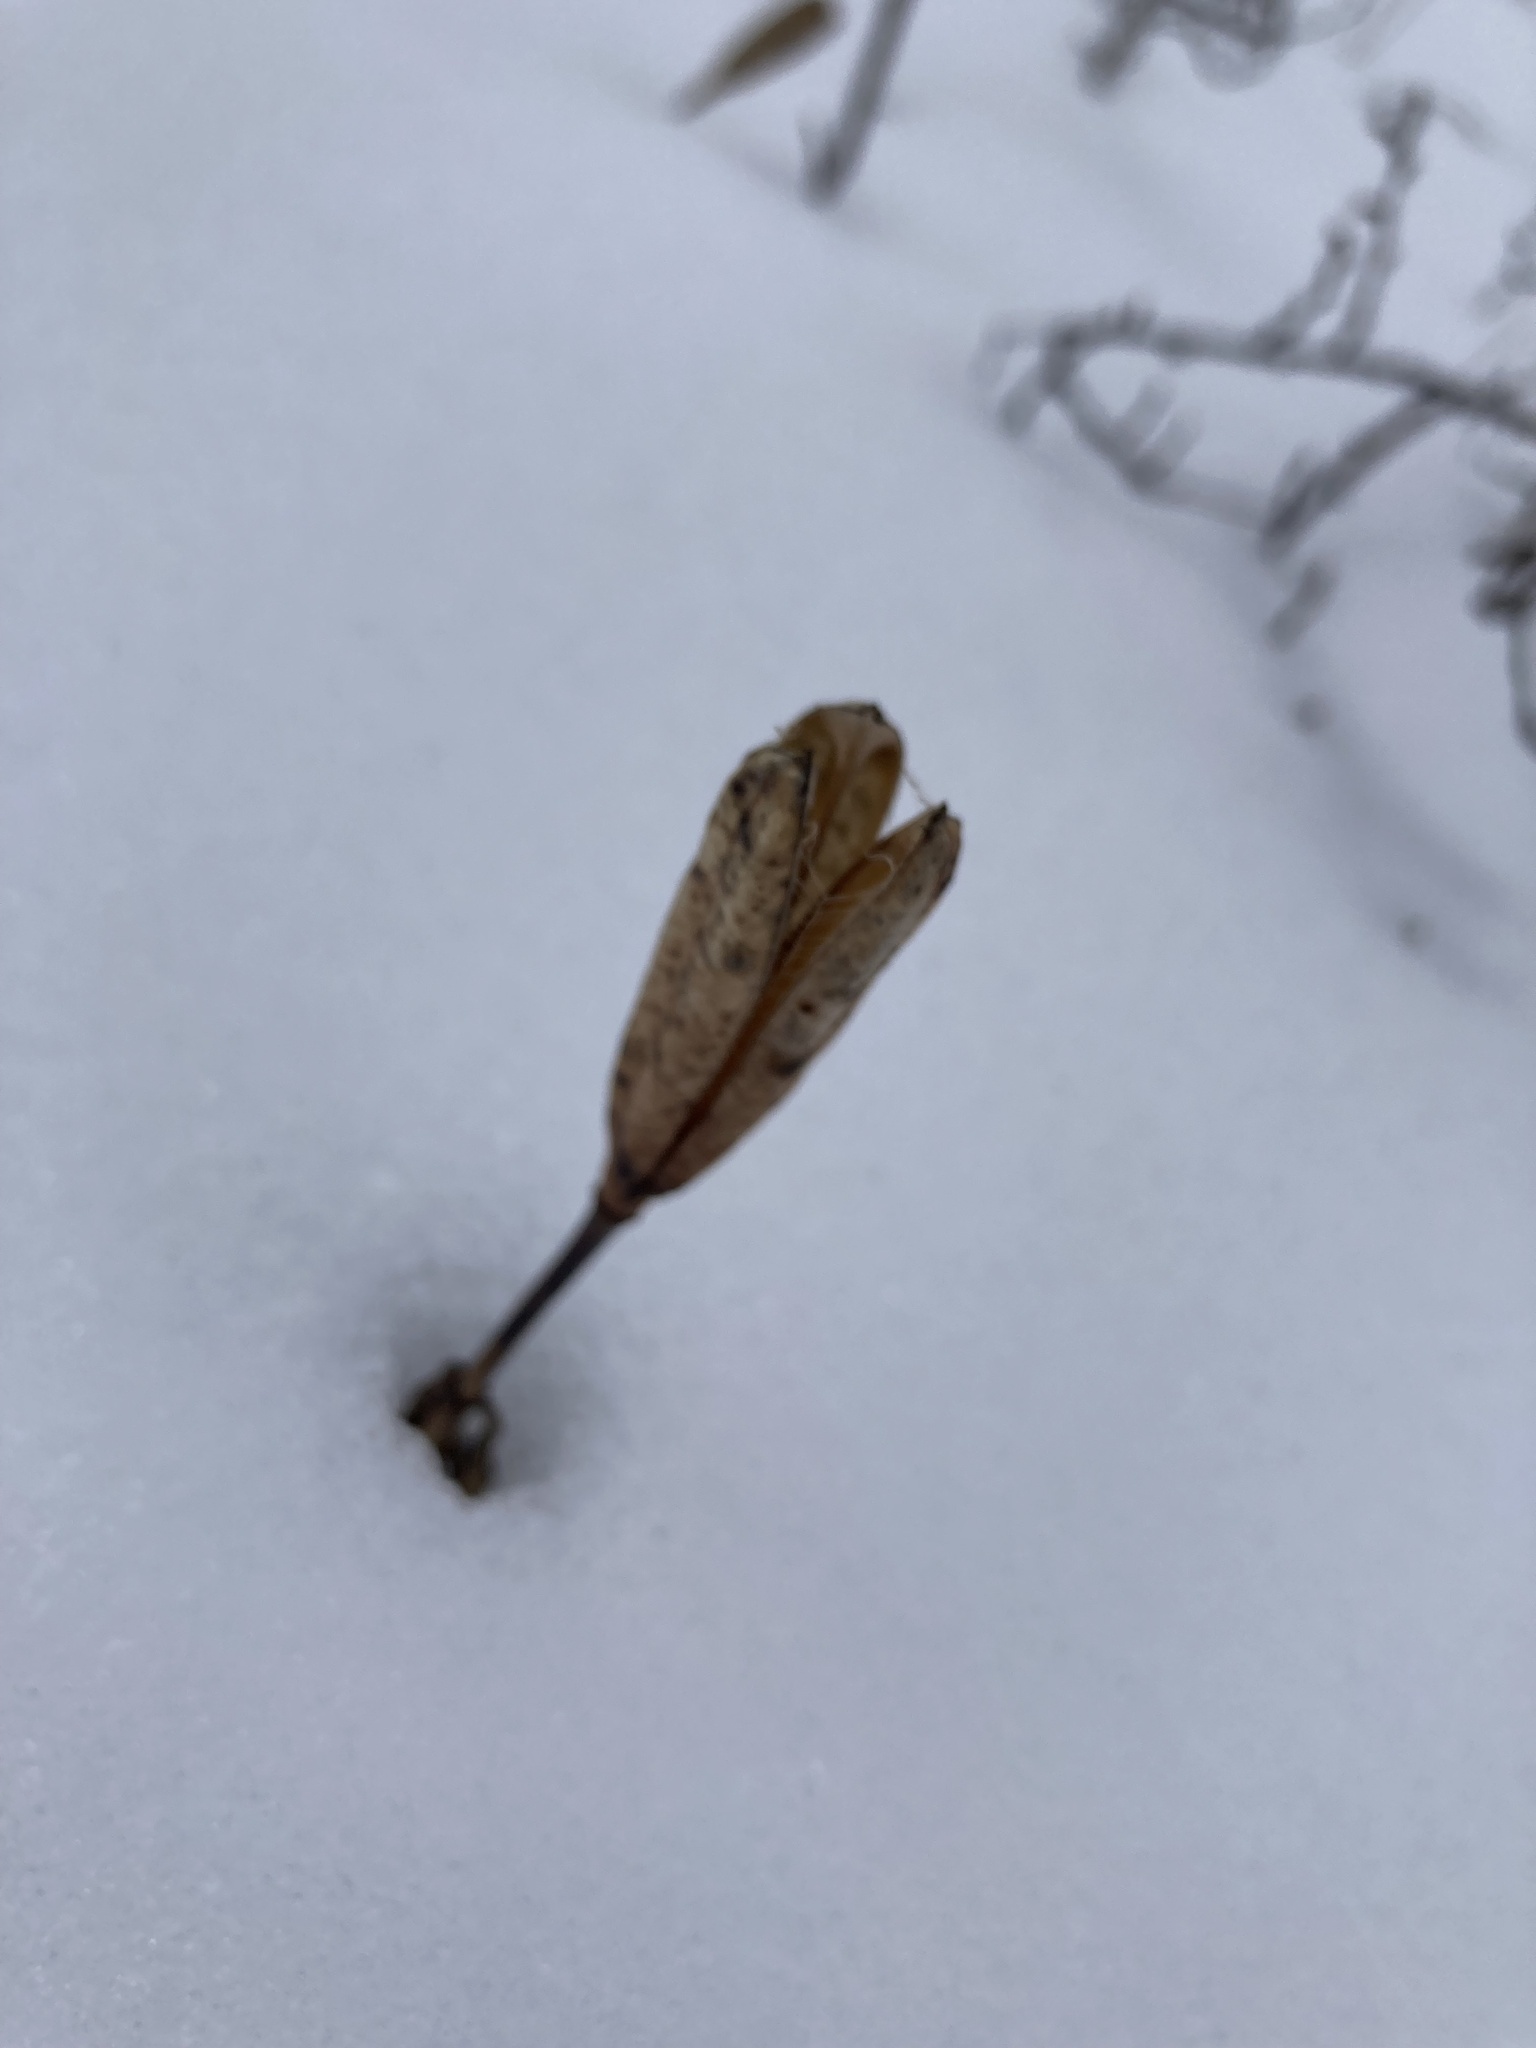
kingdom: Plantae
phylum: Tracheophyta
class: Liliopsida
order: Liliales
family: Liliaceae
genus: Lilium
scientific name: Lilium philadelphicum
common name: Red lily
